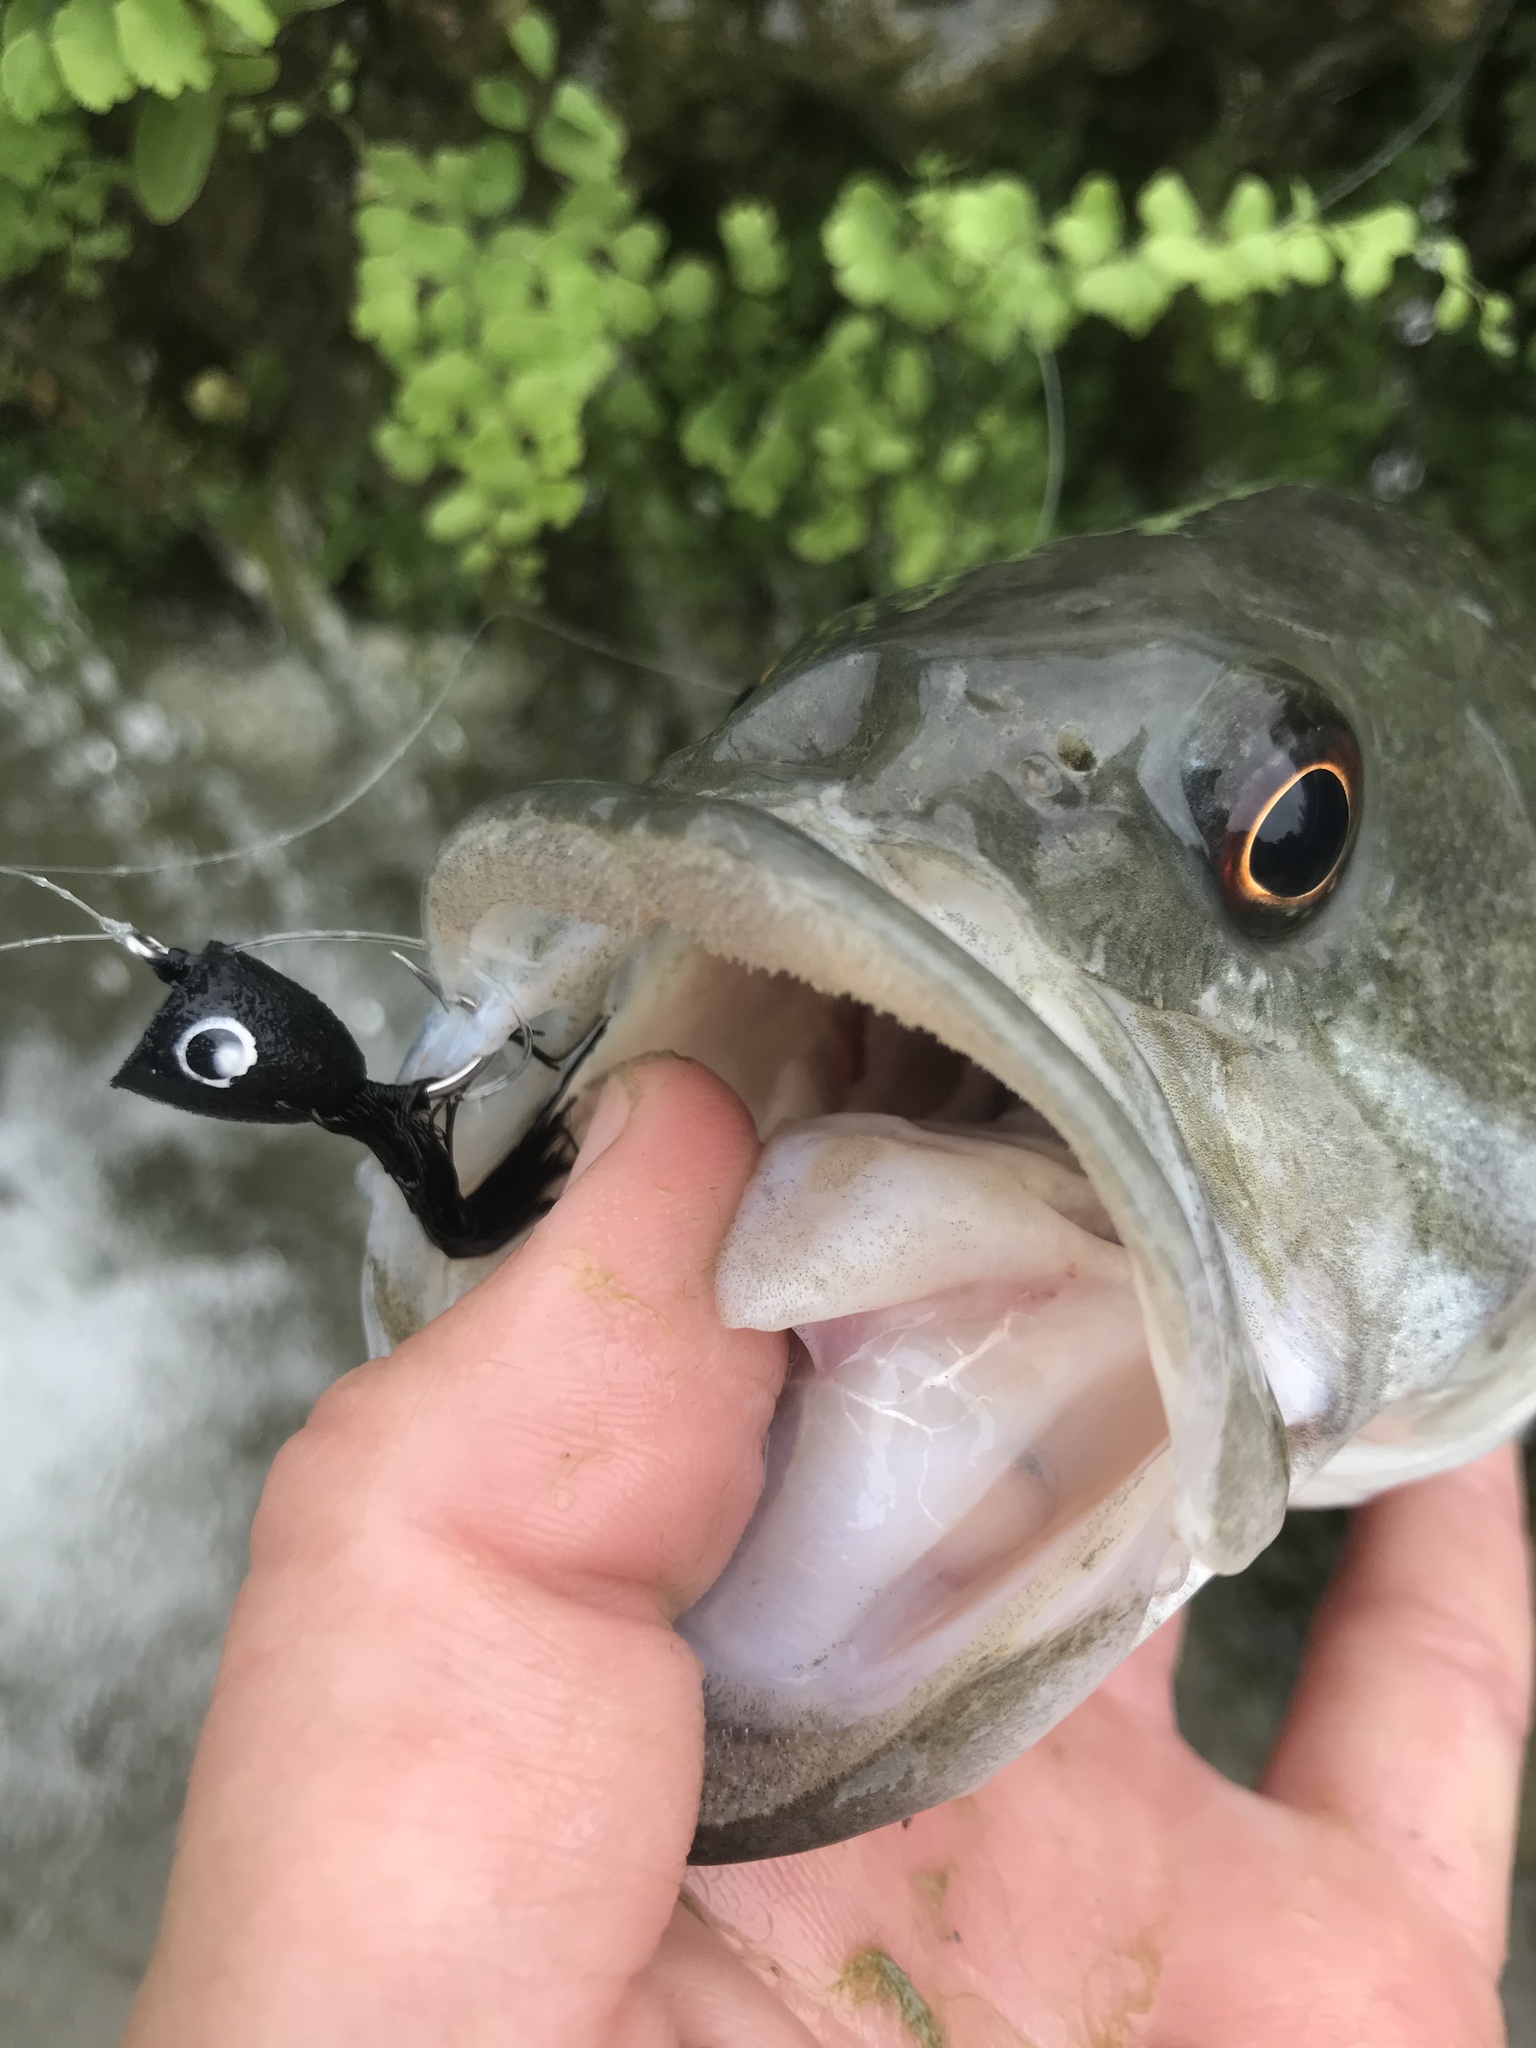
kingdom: Animalia
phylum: Chordata
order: Perciformes
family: Centrarchidae
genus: Micropterus
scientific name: Micropterus treculii
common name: Guadalupe bass
